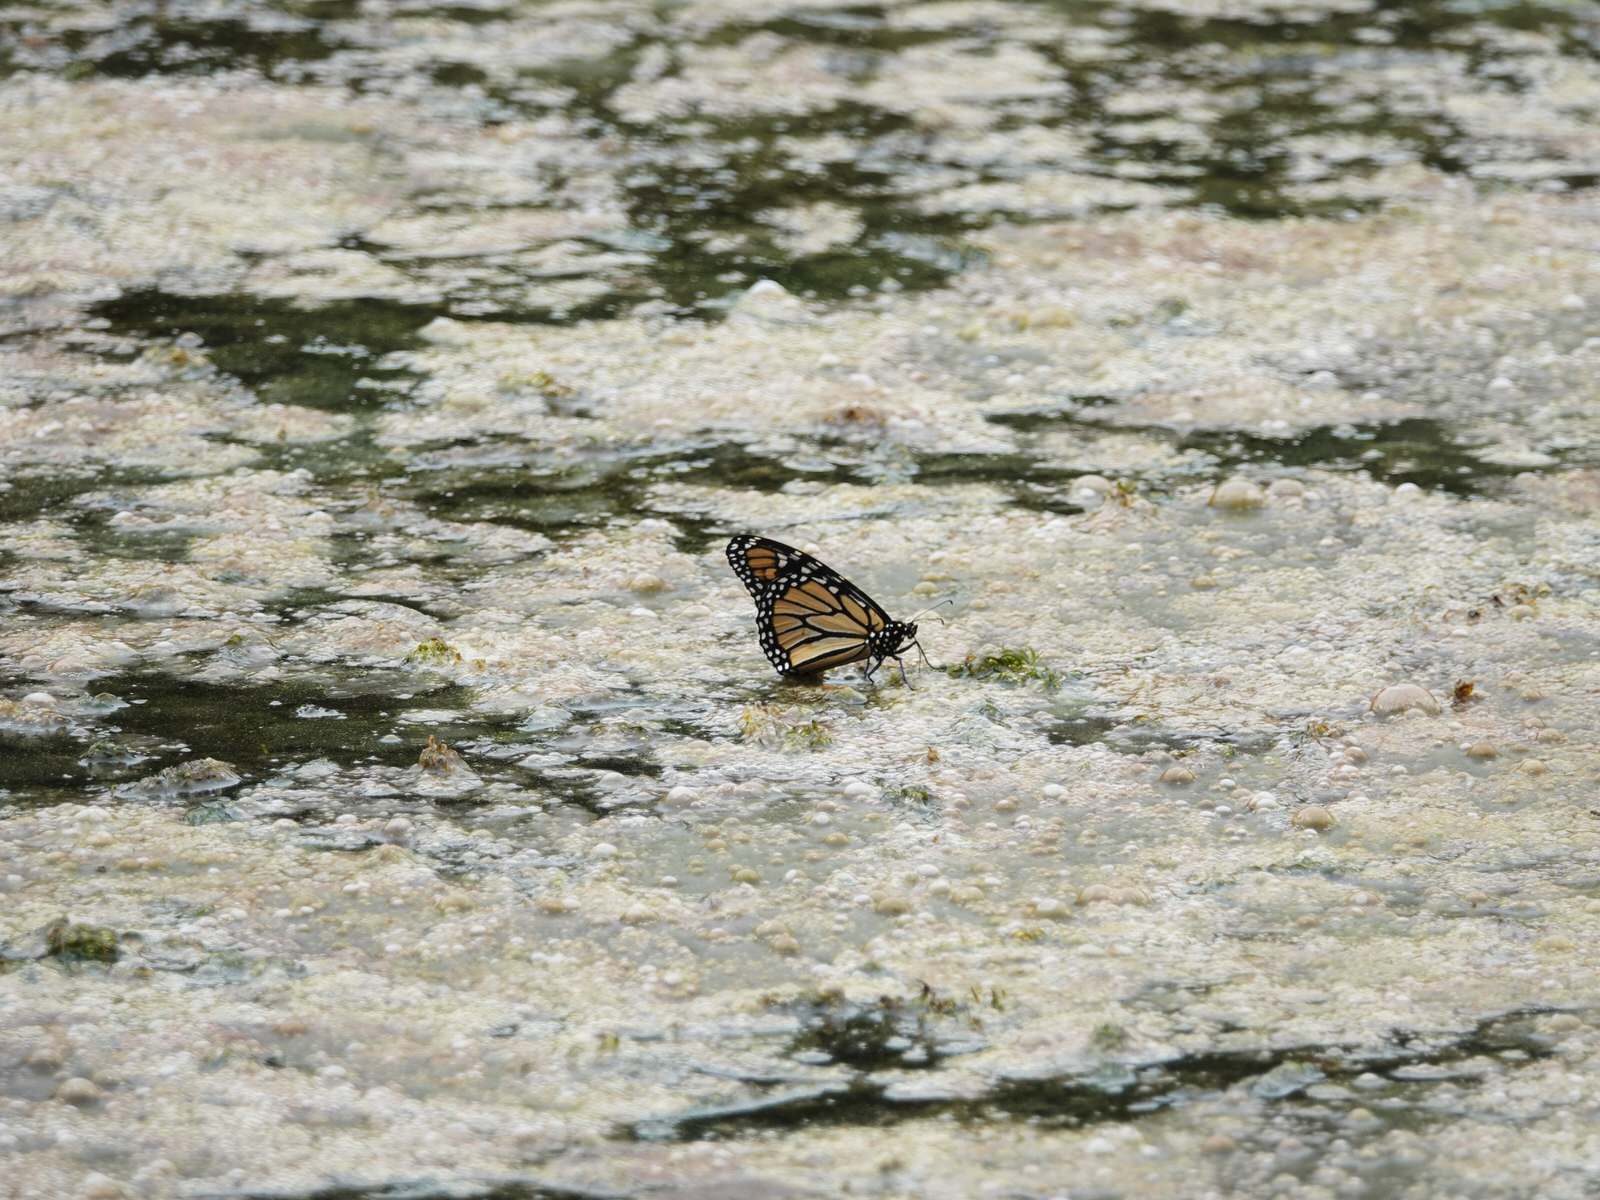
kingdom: Animalia
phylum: Arthropoda
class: Insecta
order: Lepidoptera
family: Nymphalidae
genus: Danaus
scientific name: Danaus plexippus
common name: Monarch
